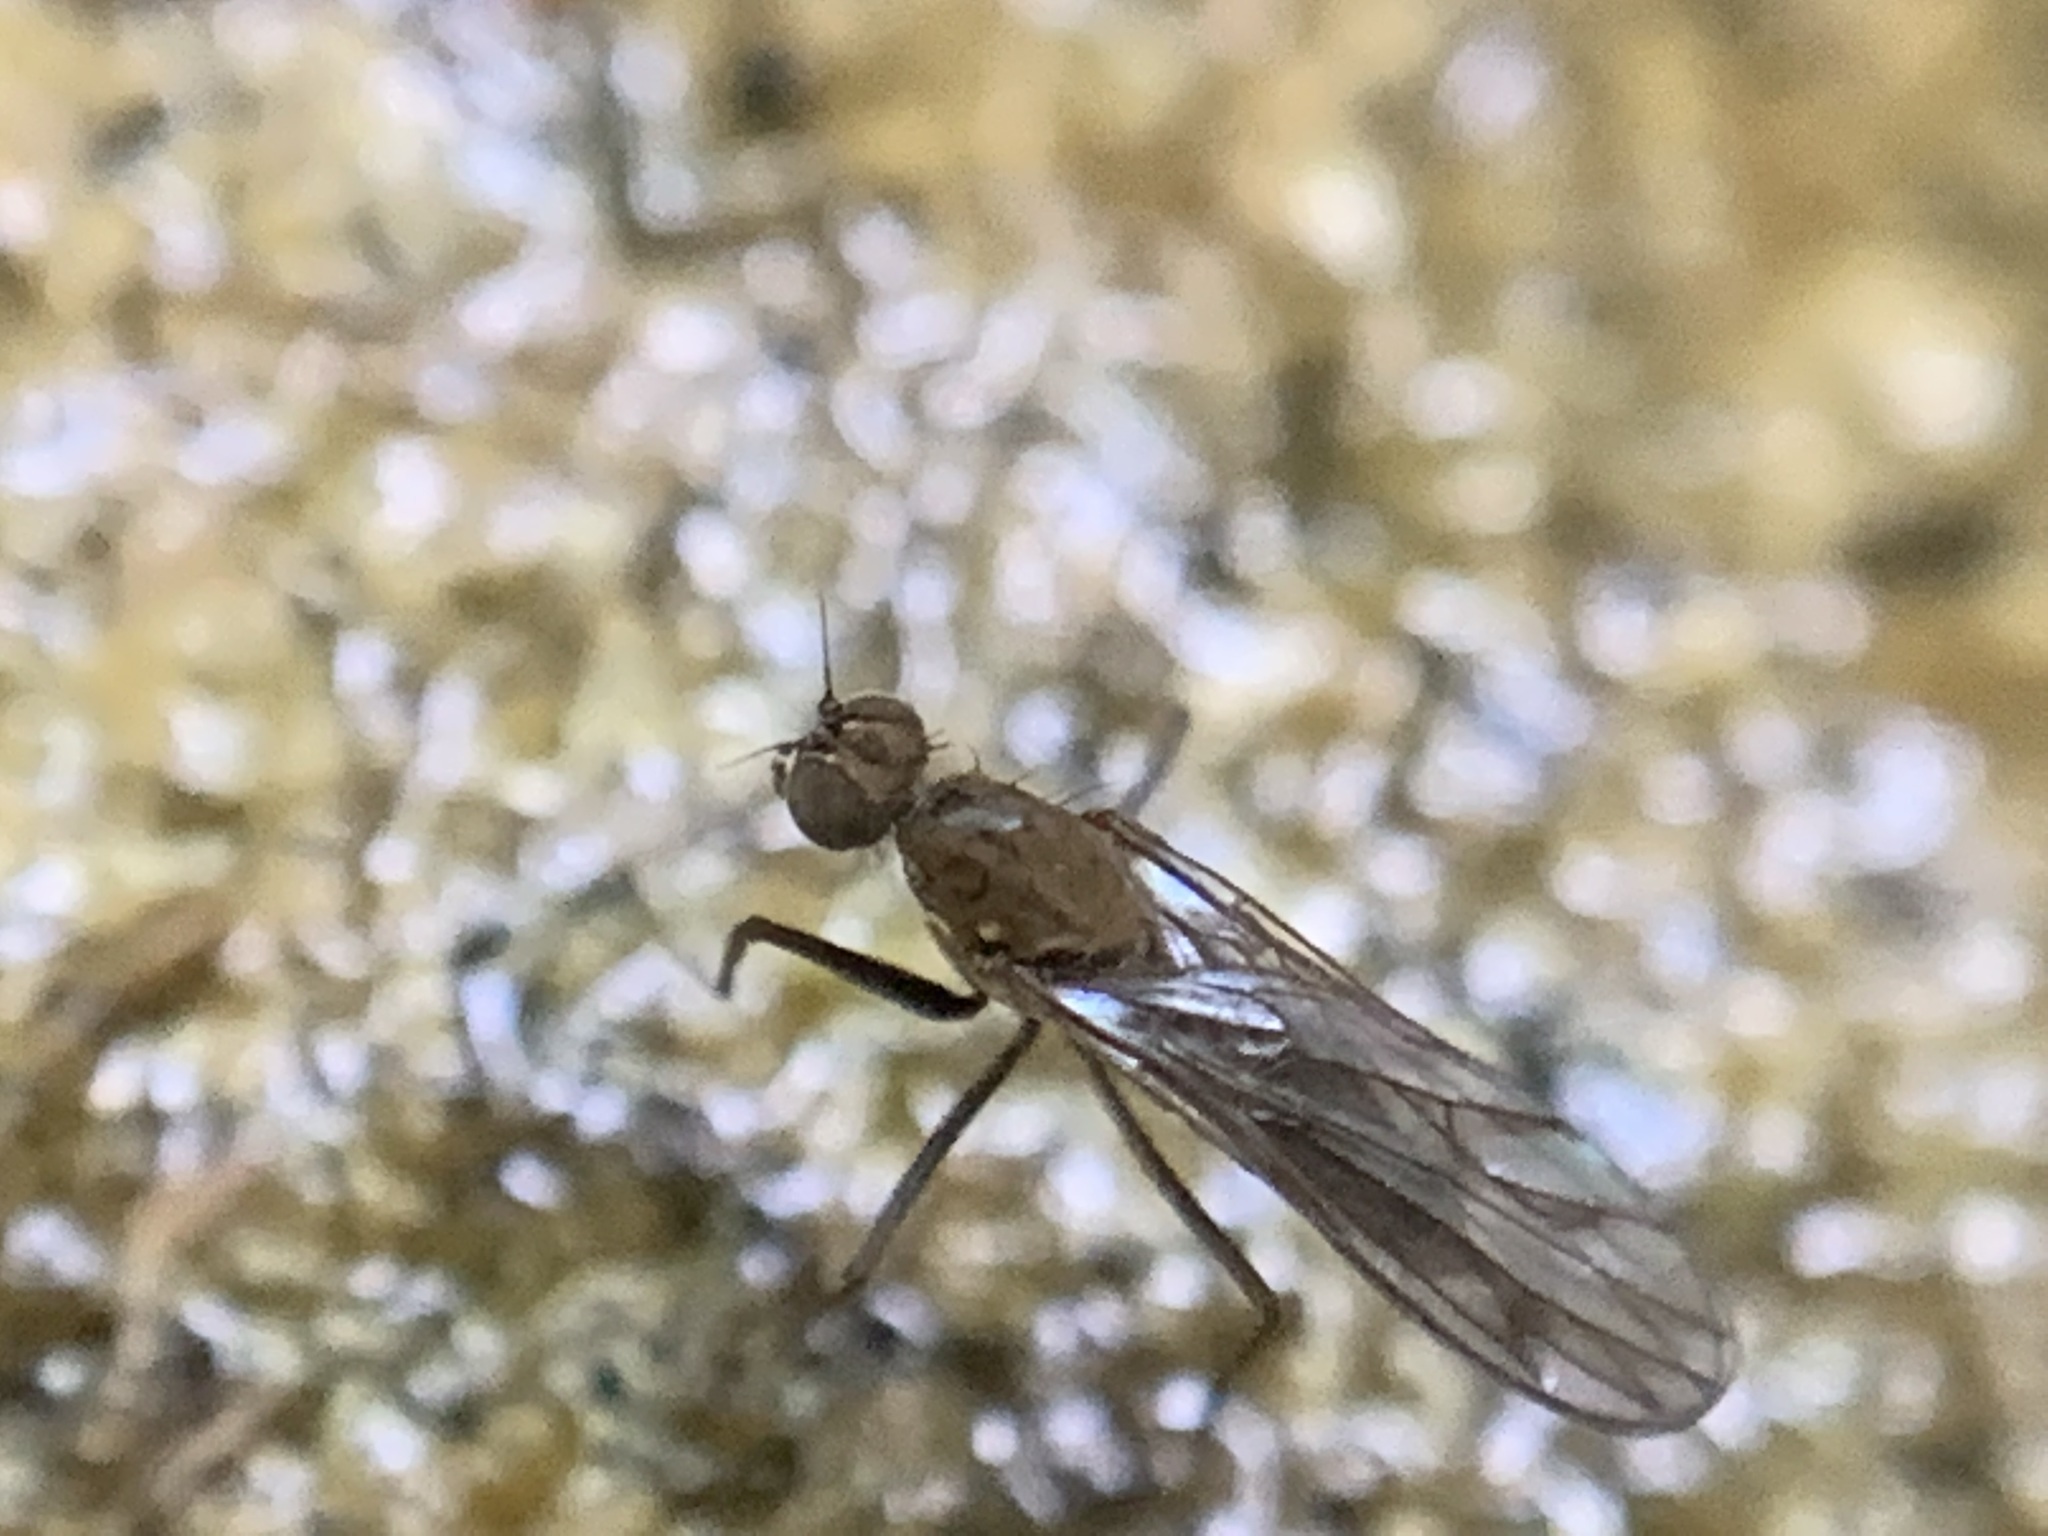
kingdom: Animalia
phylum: Arthropoda
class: Insecta
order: Diptera
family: Empididae
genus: Clinocera
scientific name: Clinocera conjuncta
